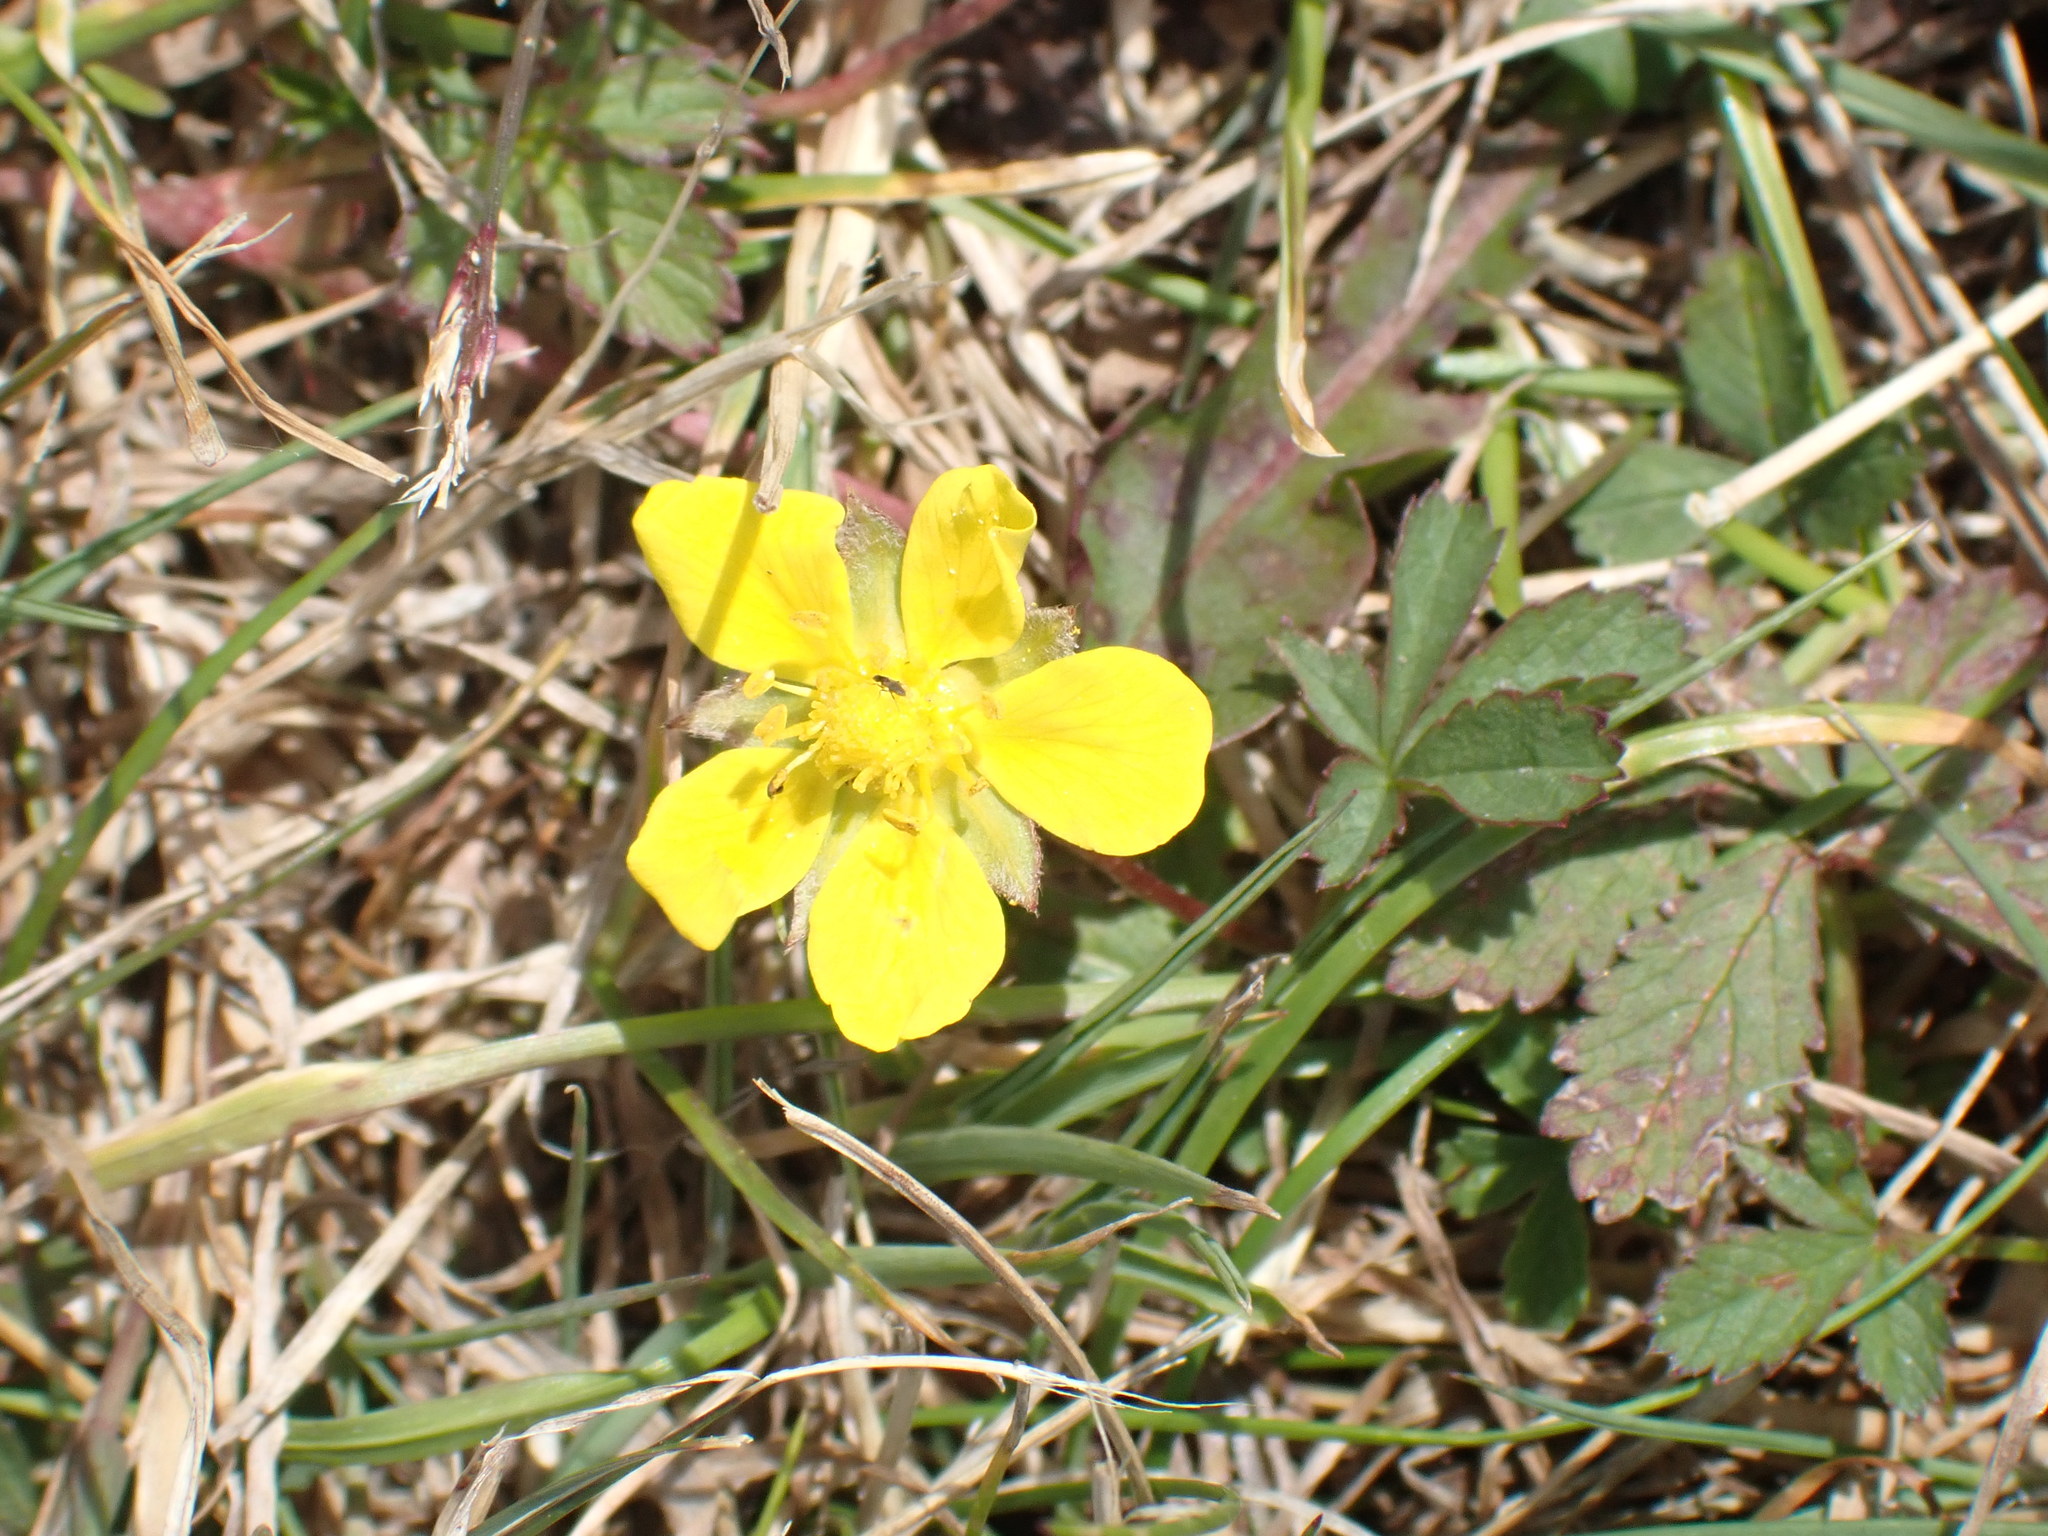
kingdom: Plantae
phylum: Tracheophyta
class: Magnoliopsida
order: Rosales
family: Rosaceae
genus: Potentilla
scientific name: Potentilla reptans
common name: Creeping cinquefoil
